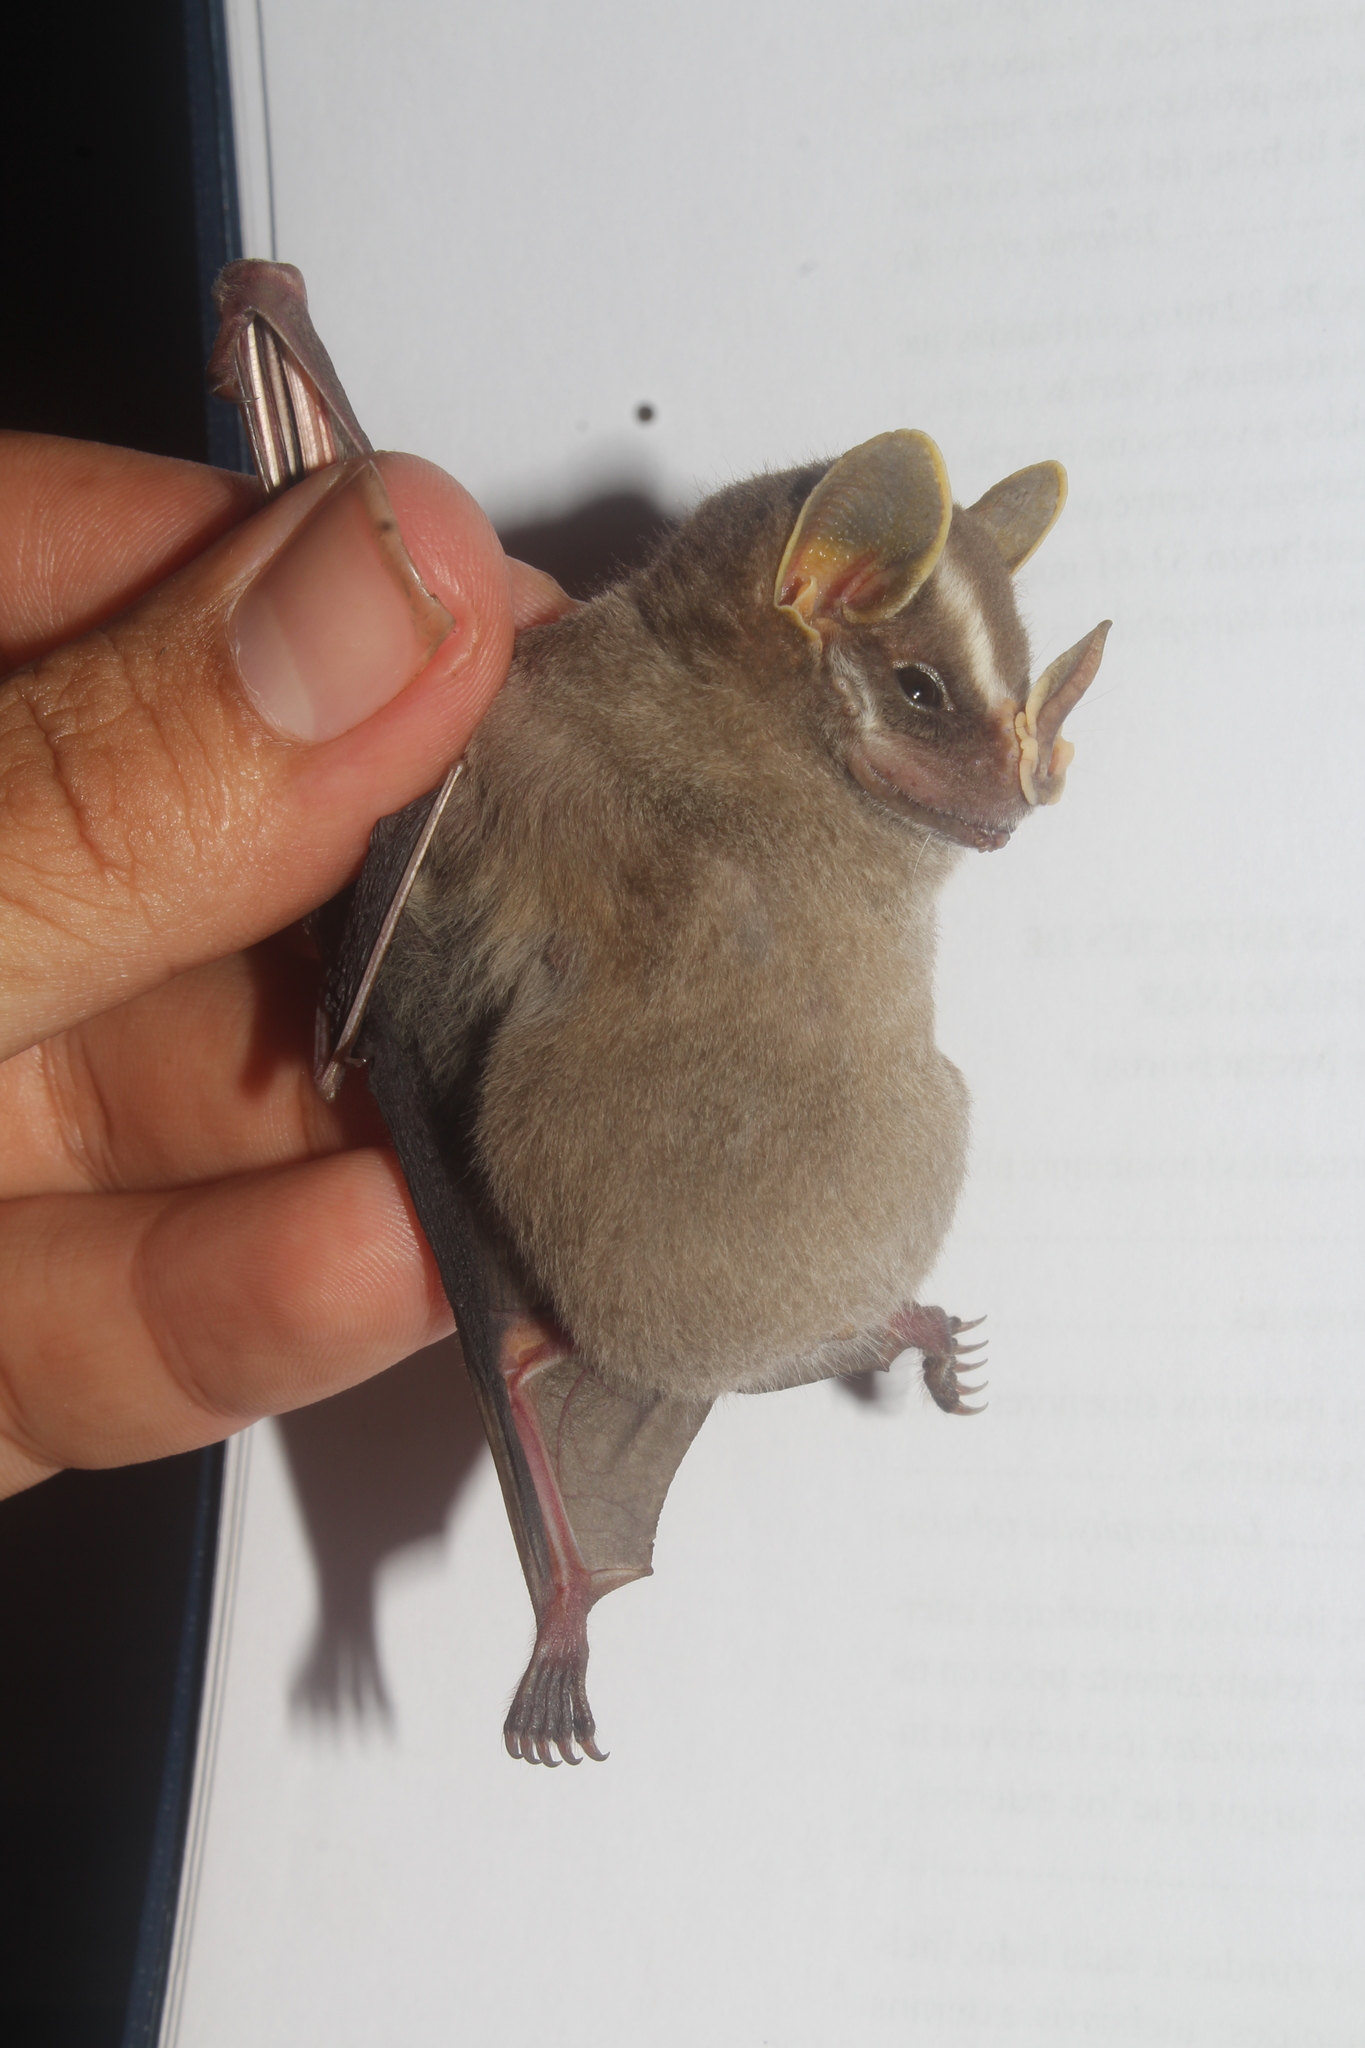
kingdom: Animalia
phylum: Chordata
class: Mammalia
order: Chiroptera
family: Phyllostomidae
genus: Vampyriscus
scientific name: Vampyriscus nymphaea
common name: Striped yellow-eared bat
